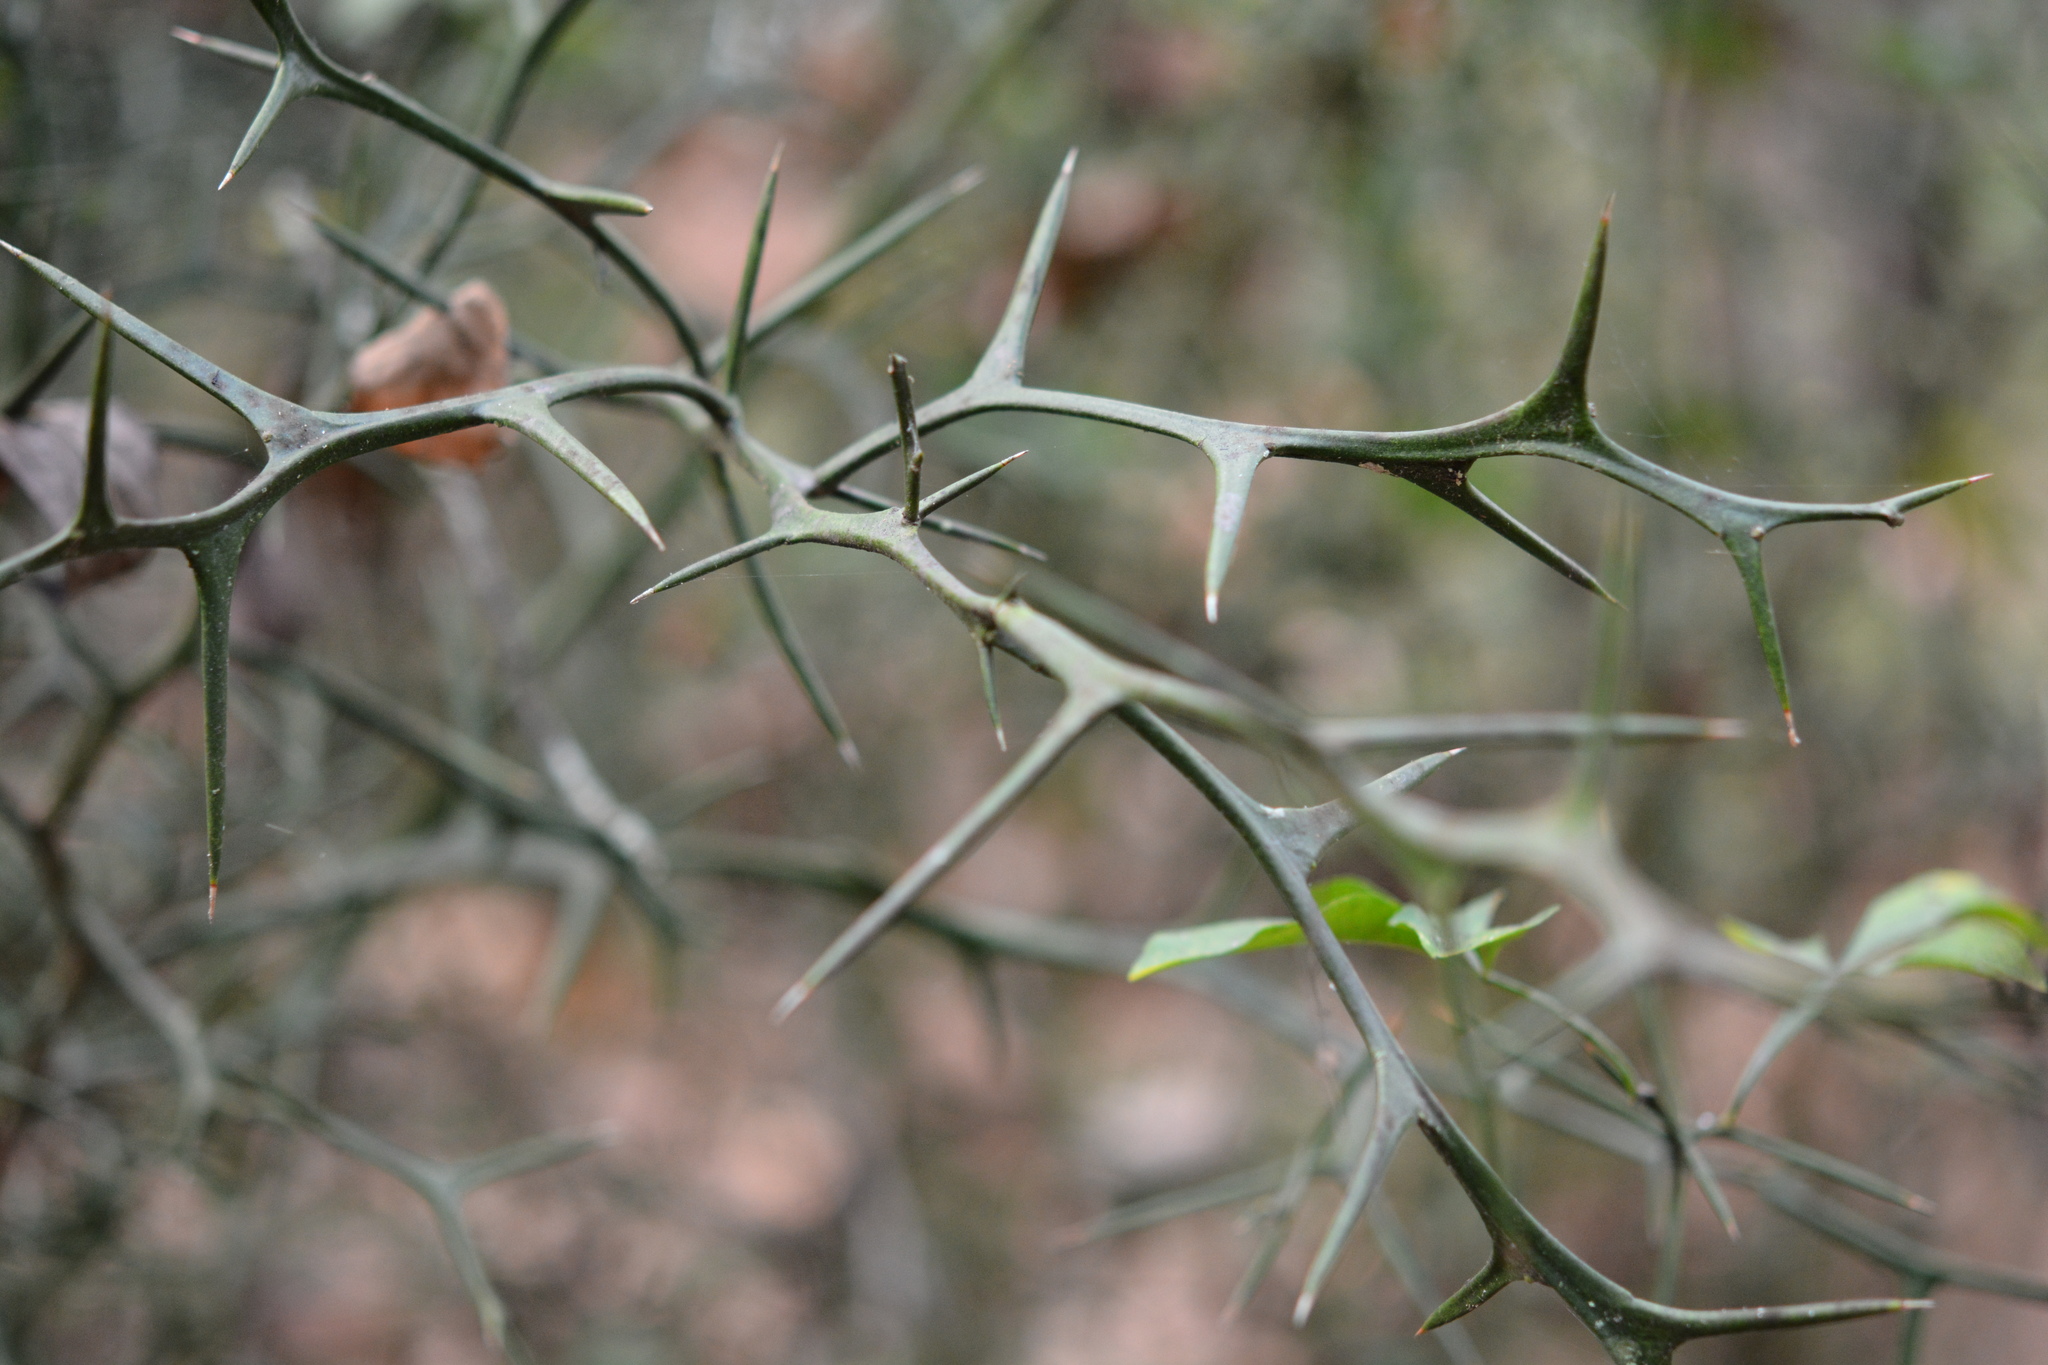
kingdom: Plantae
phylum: Tracheophyta
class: Magnoliopsida
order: Sapindales
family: Rutaceae
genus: Citrus
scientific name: Citrus trifoliata
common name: Japanese bitter-orange
